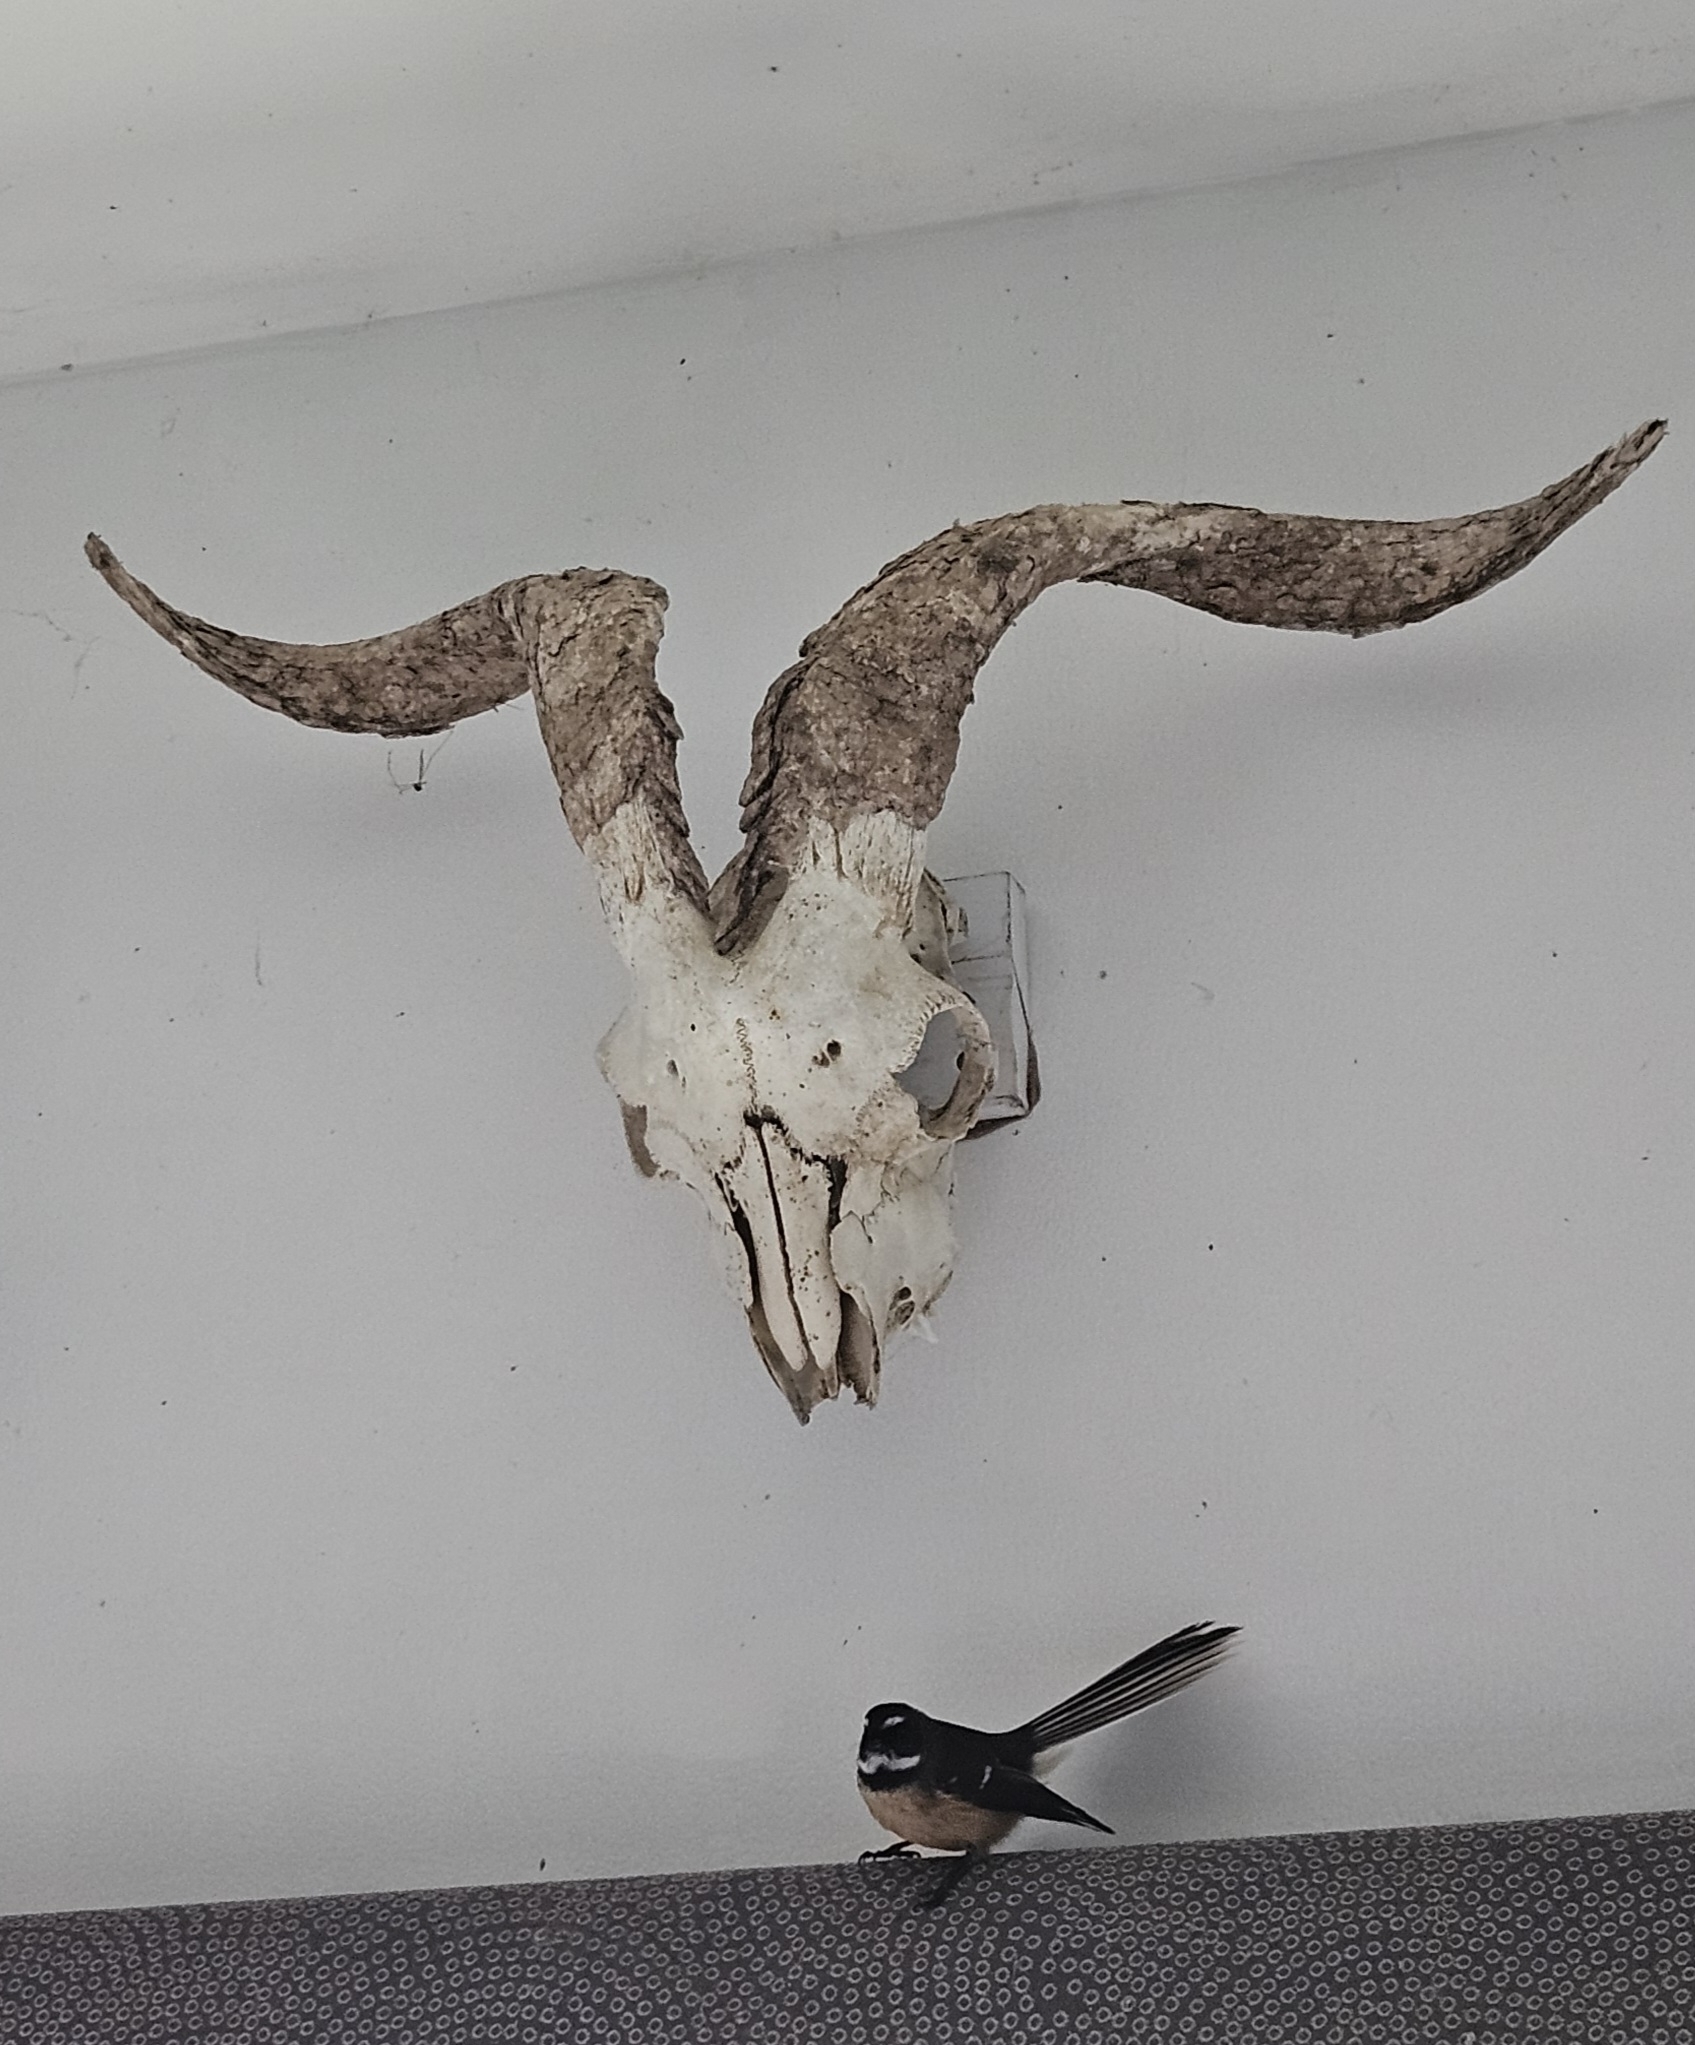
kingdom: Animalia
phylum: Chordata
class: Aves
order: Passeriformes
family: Rhipiduridae
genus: Rhipidura
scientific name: Rhipidura fuliginosa
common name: New zealand fantail
